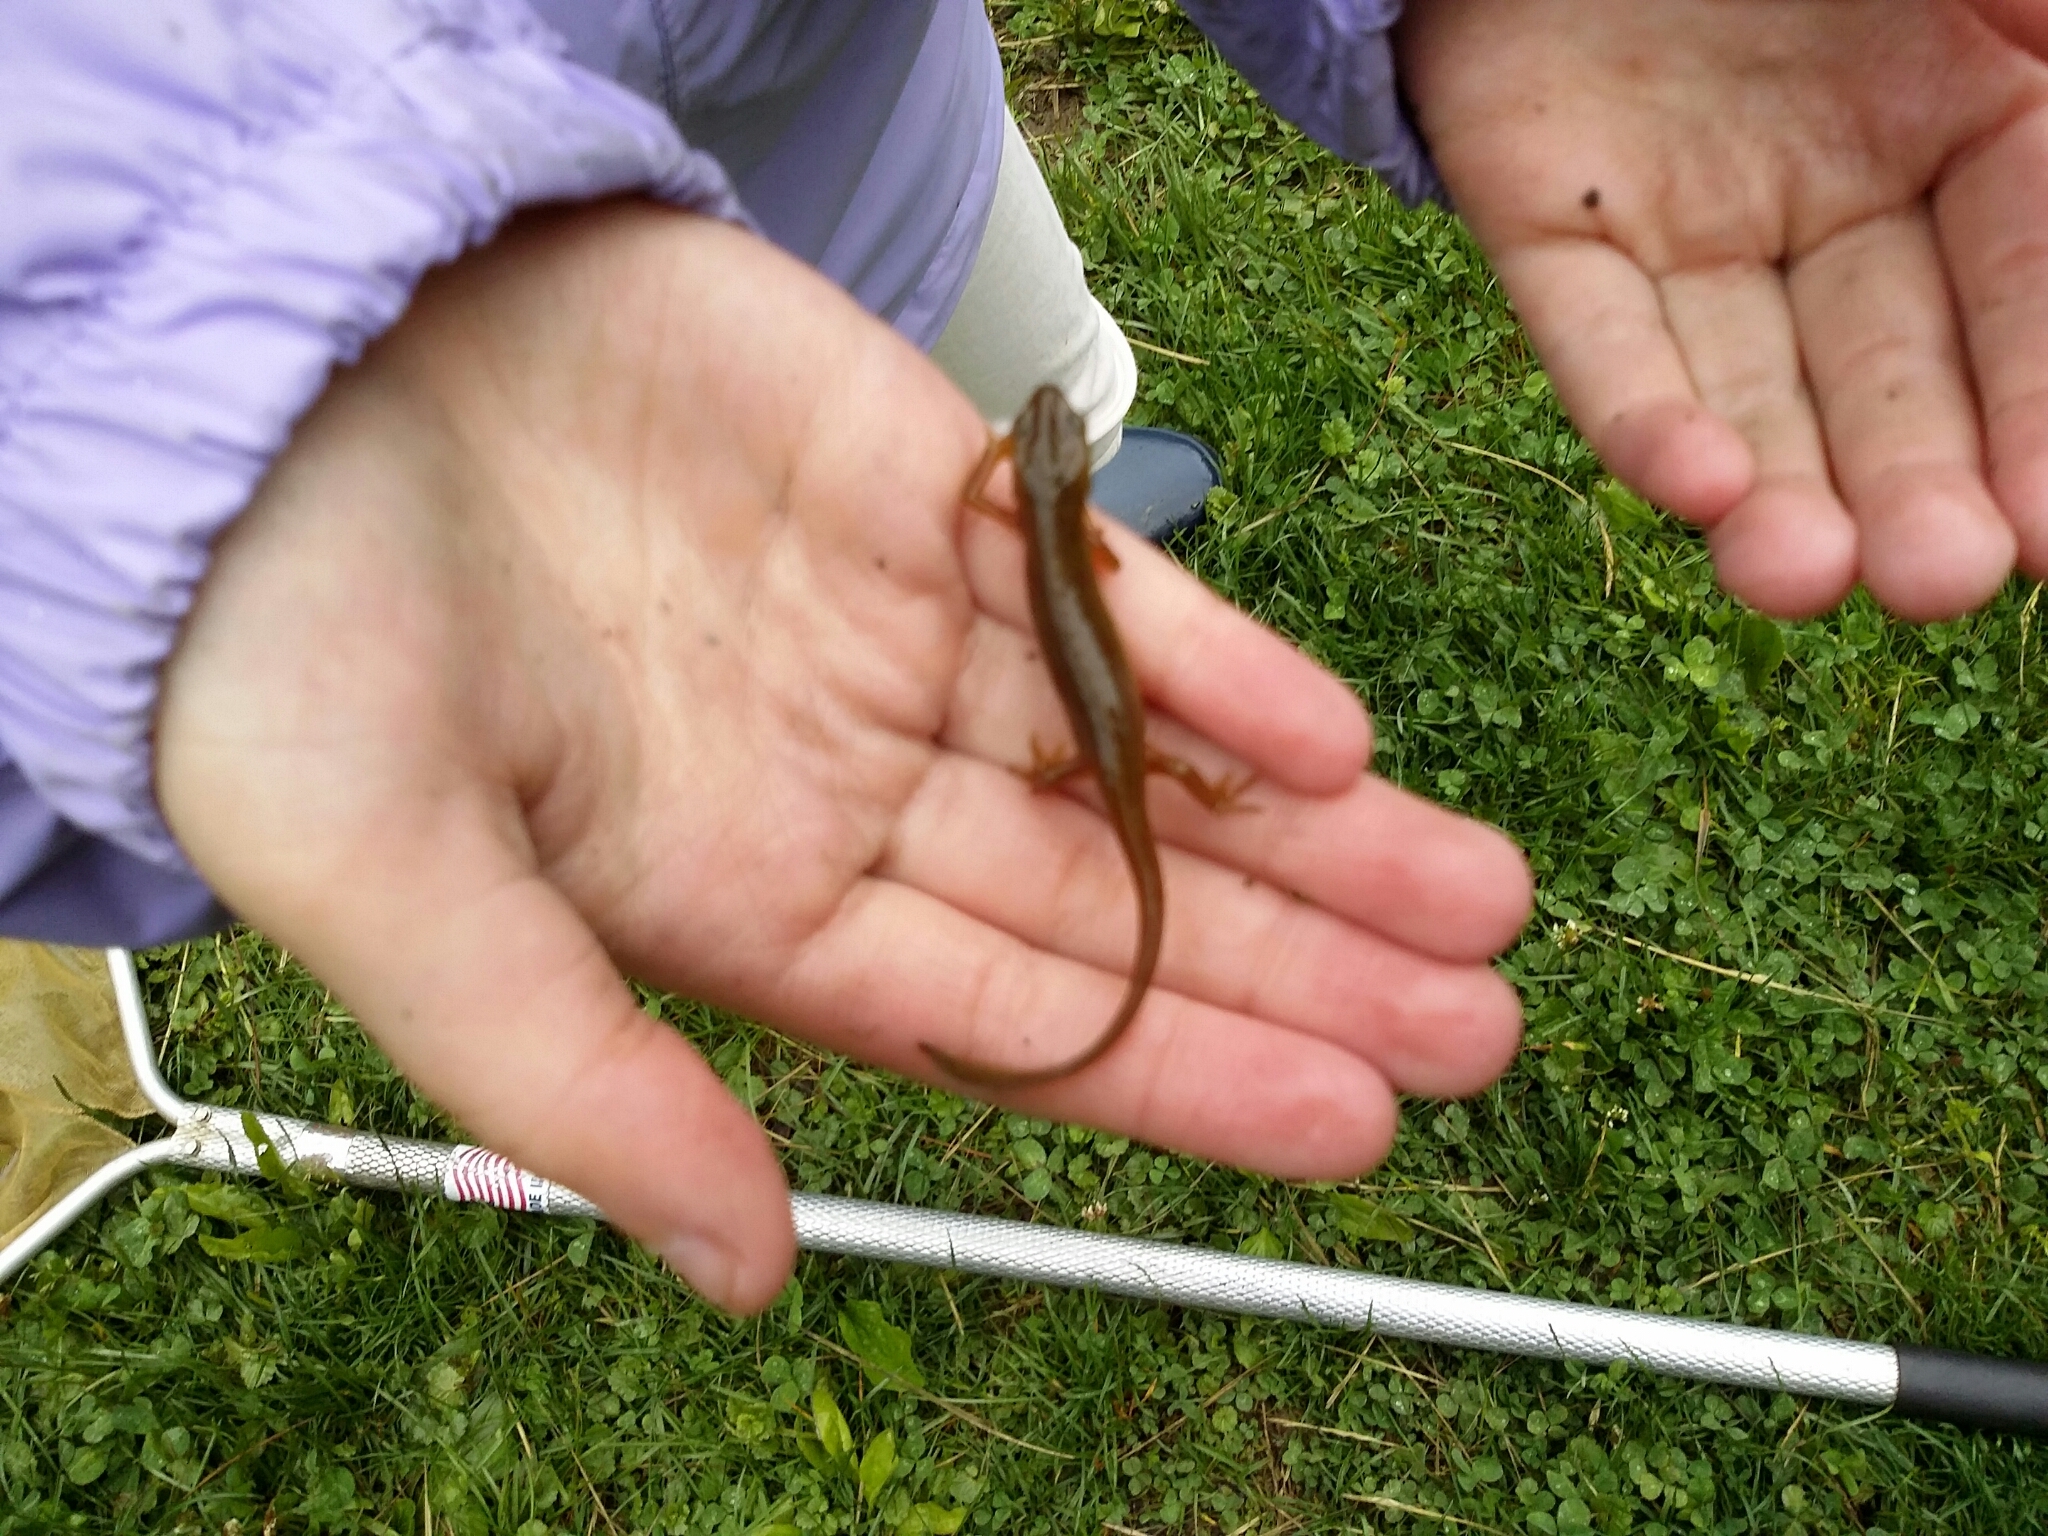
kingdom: Animalia
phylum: Chordata
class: Amphibia
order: Caudata
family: Salamandridae
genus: Notophthalmus
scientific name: Notophthalmus viridescens
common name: Eastern newt
